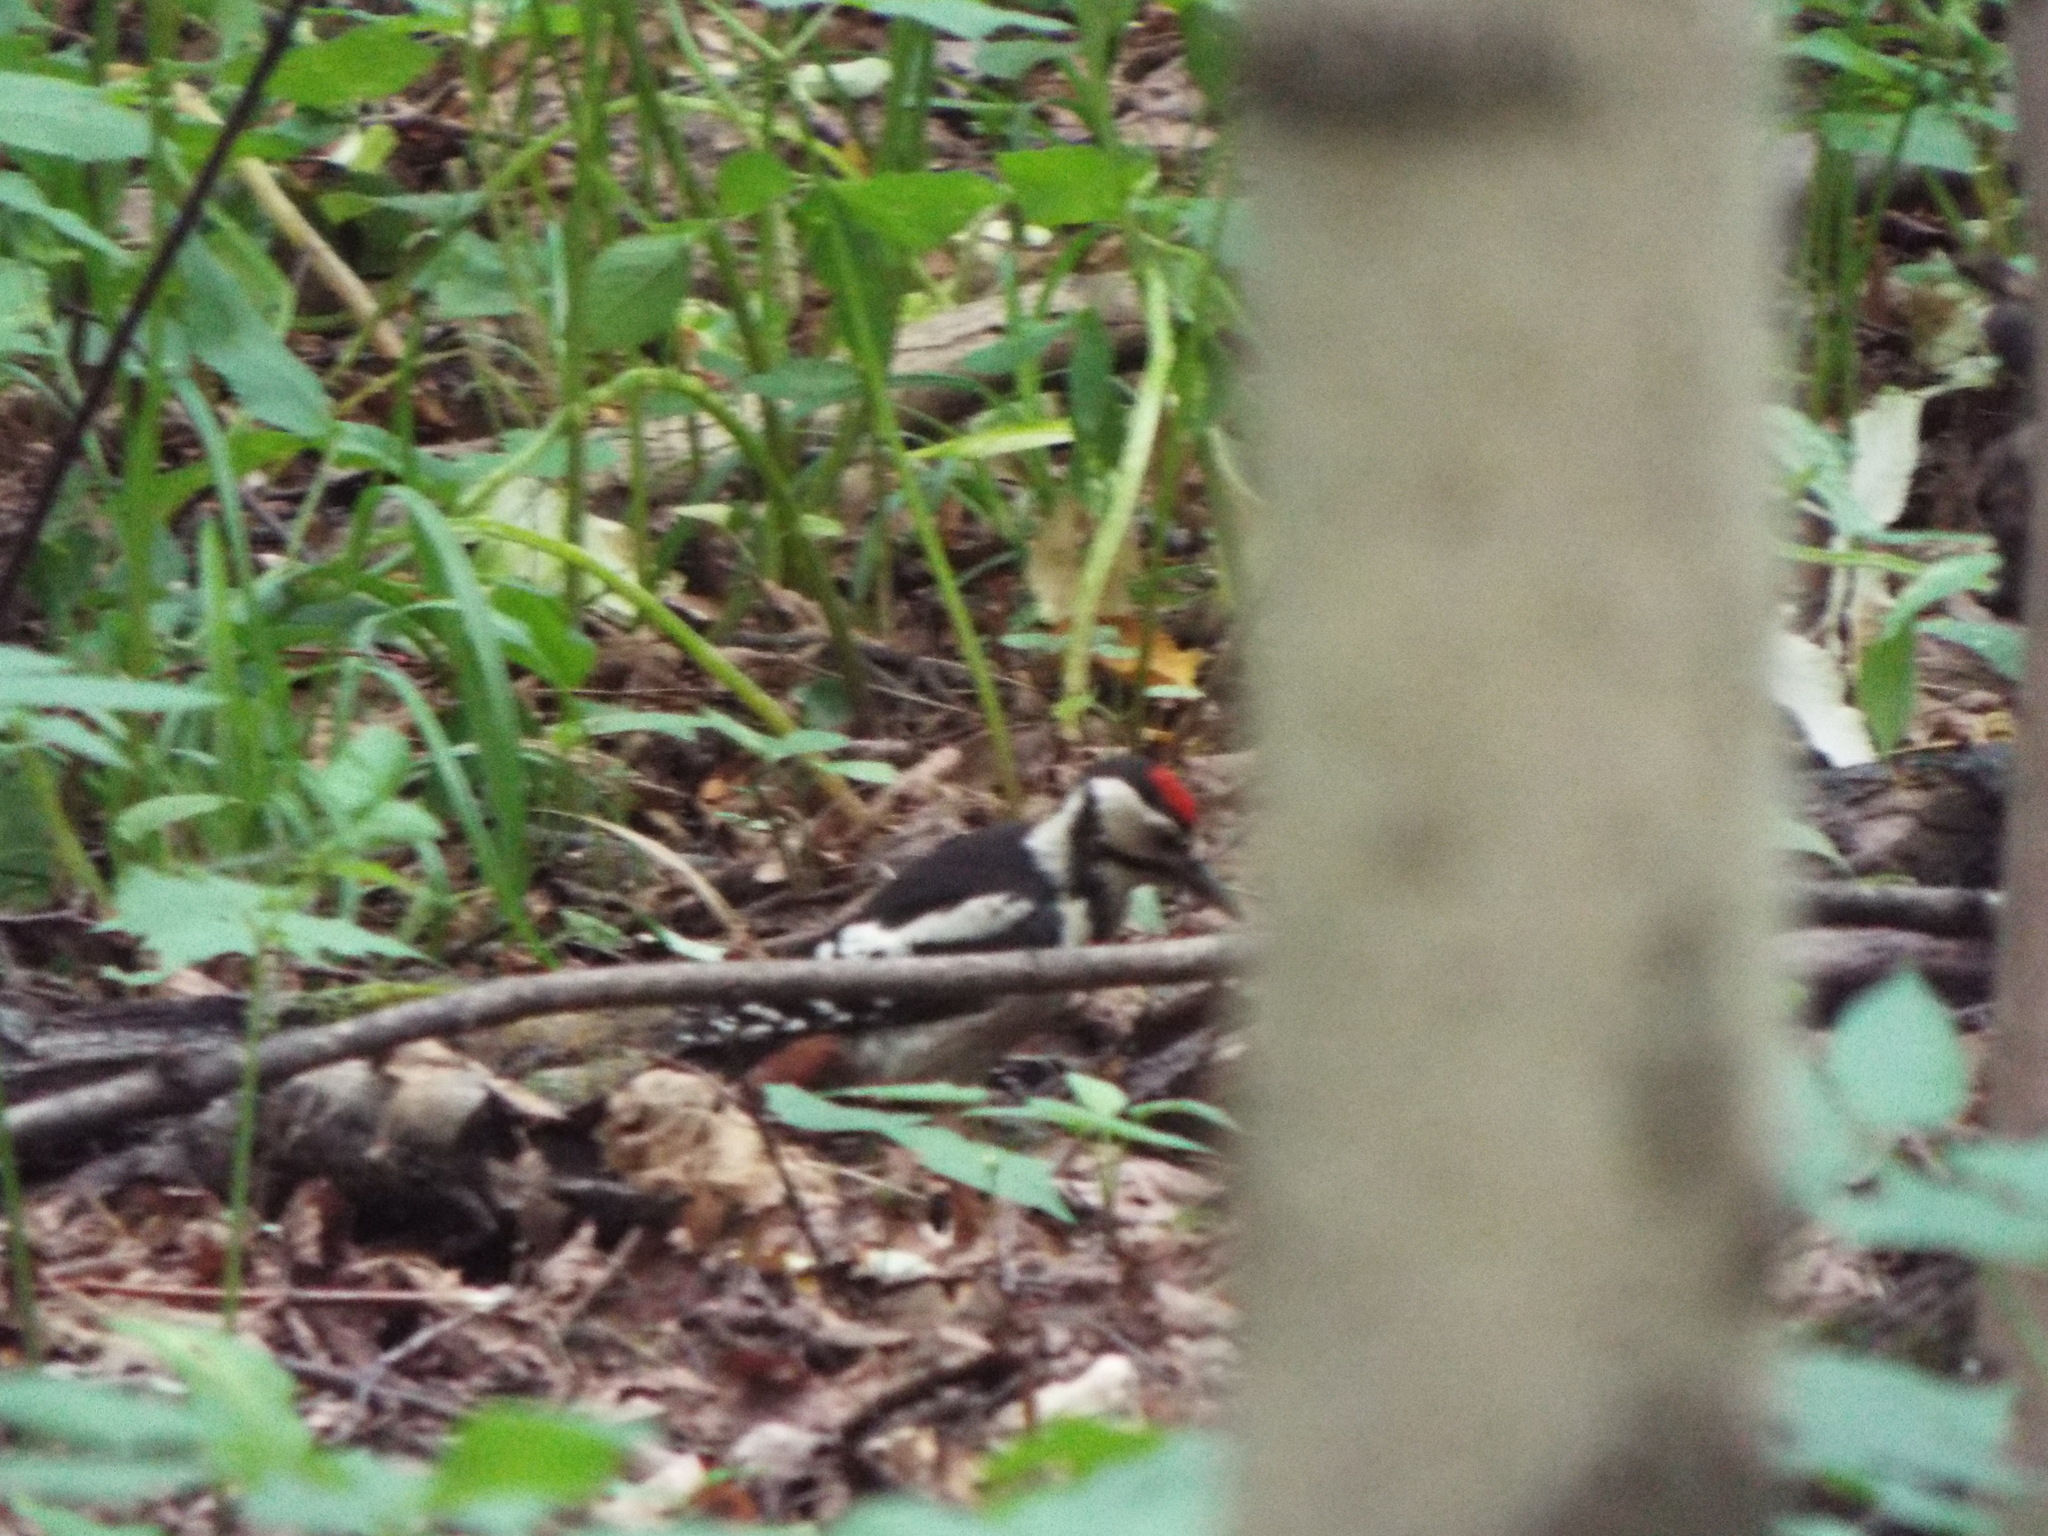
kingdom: Animalia
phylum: Chordata
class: Aves
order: Piciformes
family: Picidae
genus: Dendrocopos
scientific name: Dendrocopos major
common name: Great spotted woodpecker
